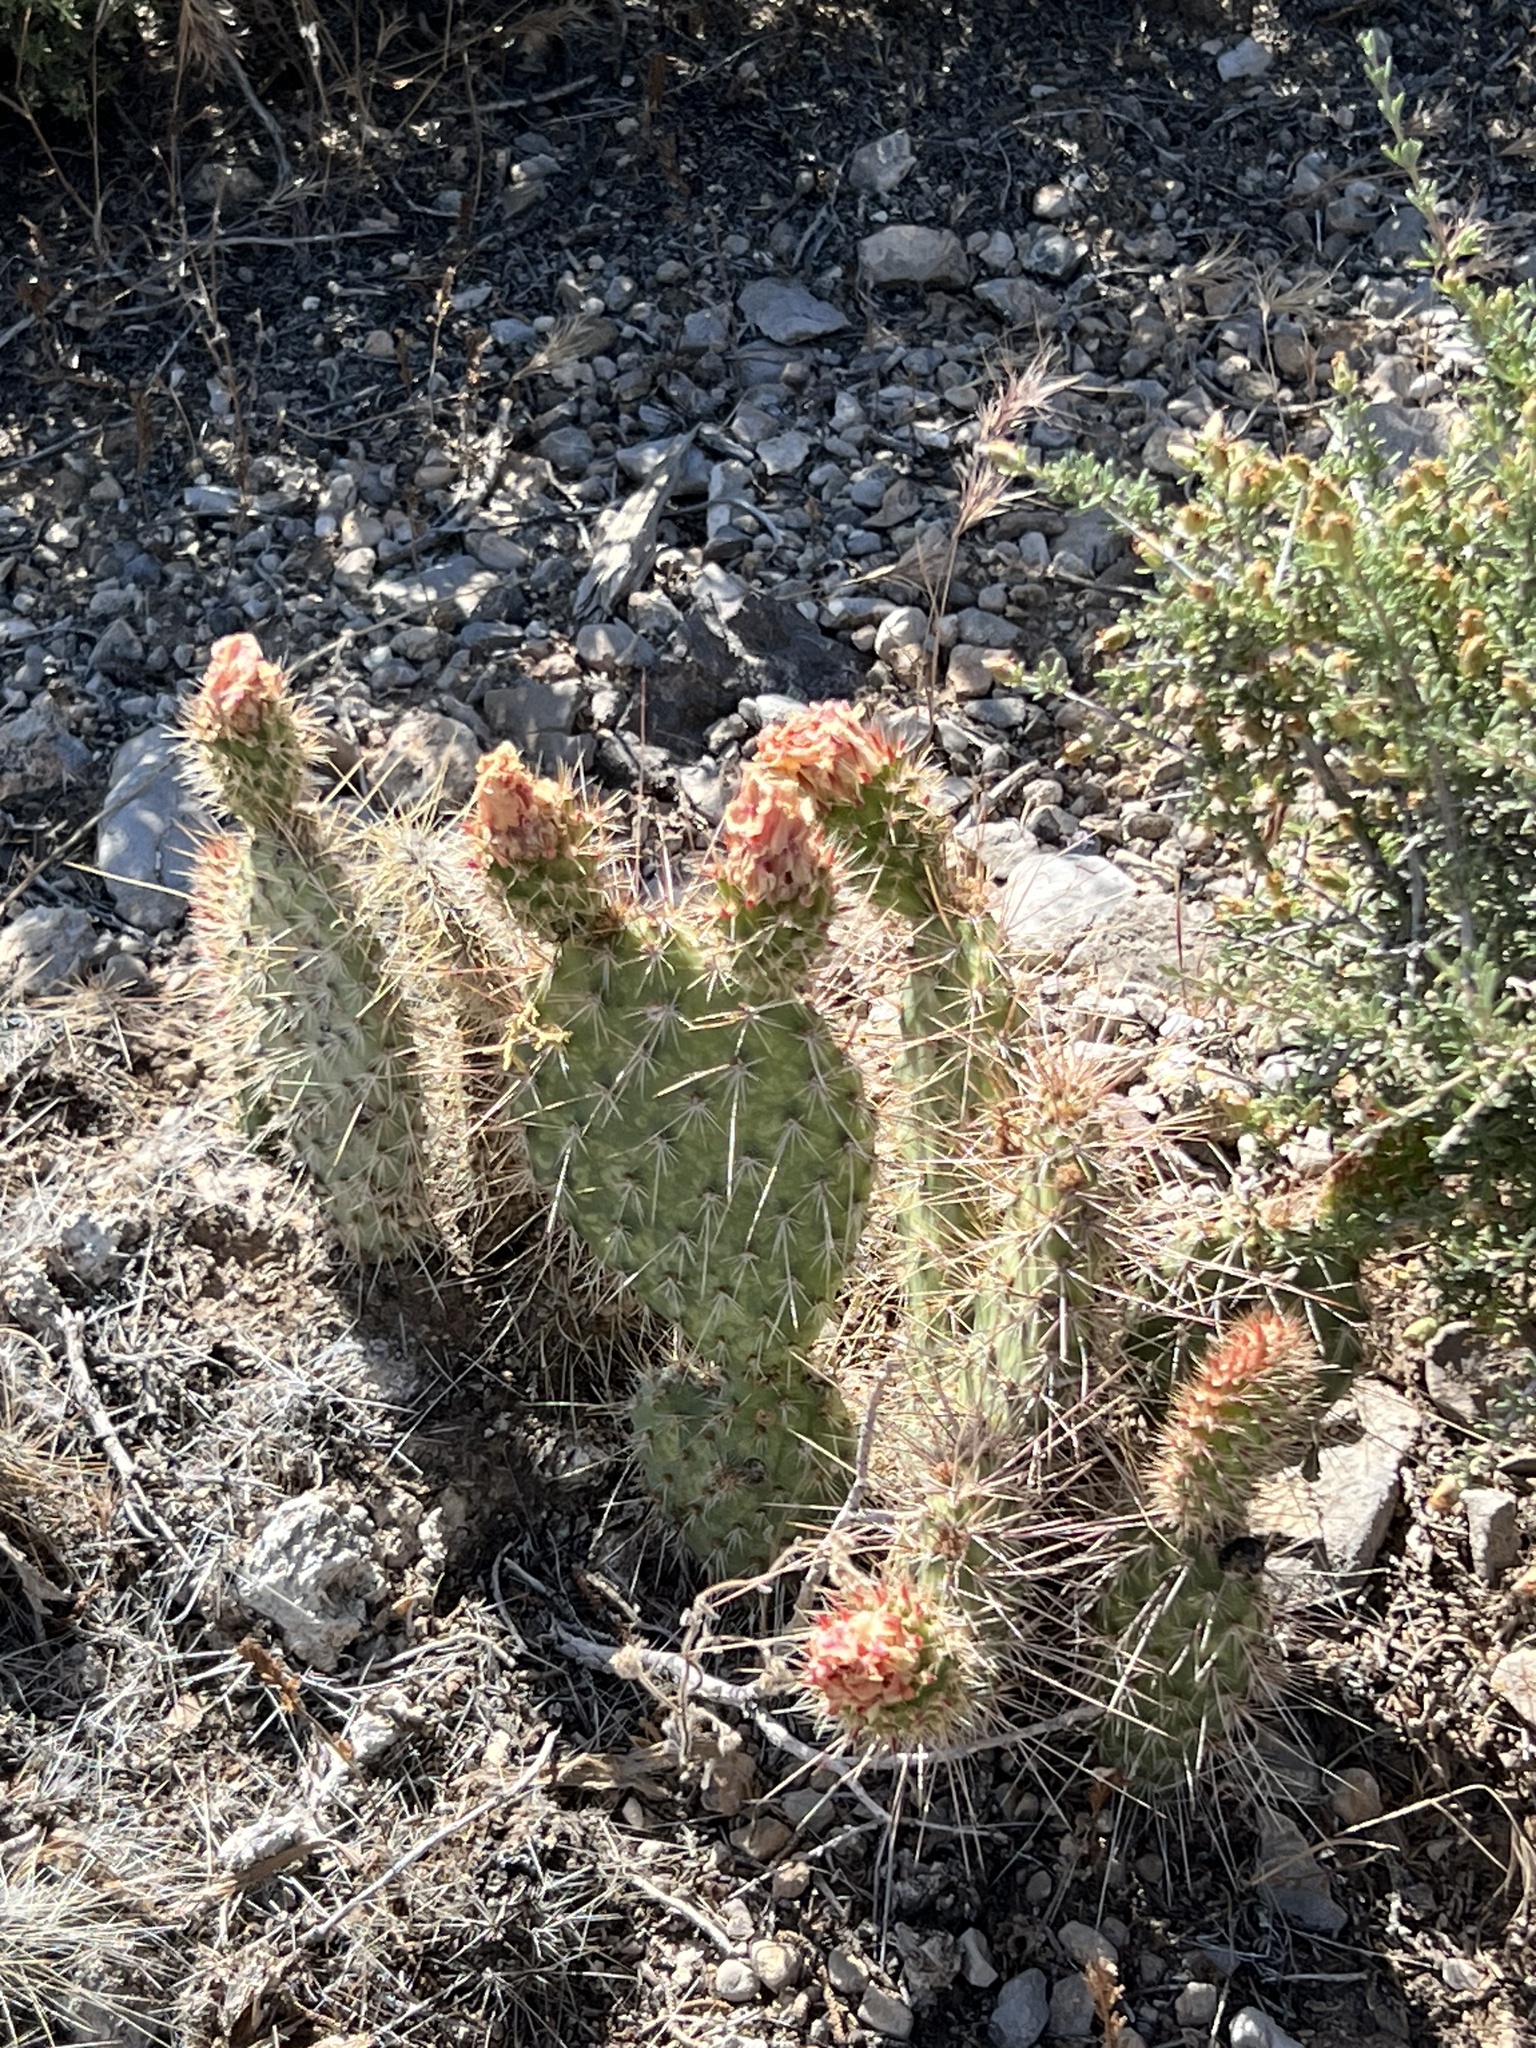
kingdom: Plantae
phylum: Tracheophyta
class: Magnoliopsida
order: Caryophyllales
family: Cactaceae
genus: Opuntia
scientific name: Opuntia polyacantha
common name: Plains prickly-pear
